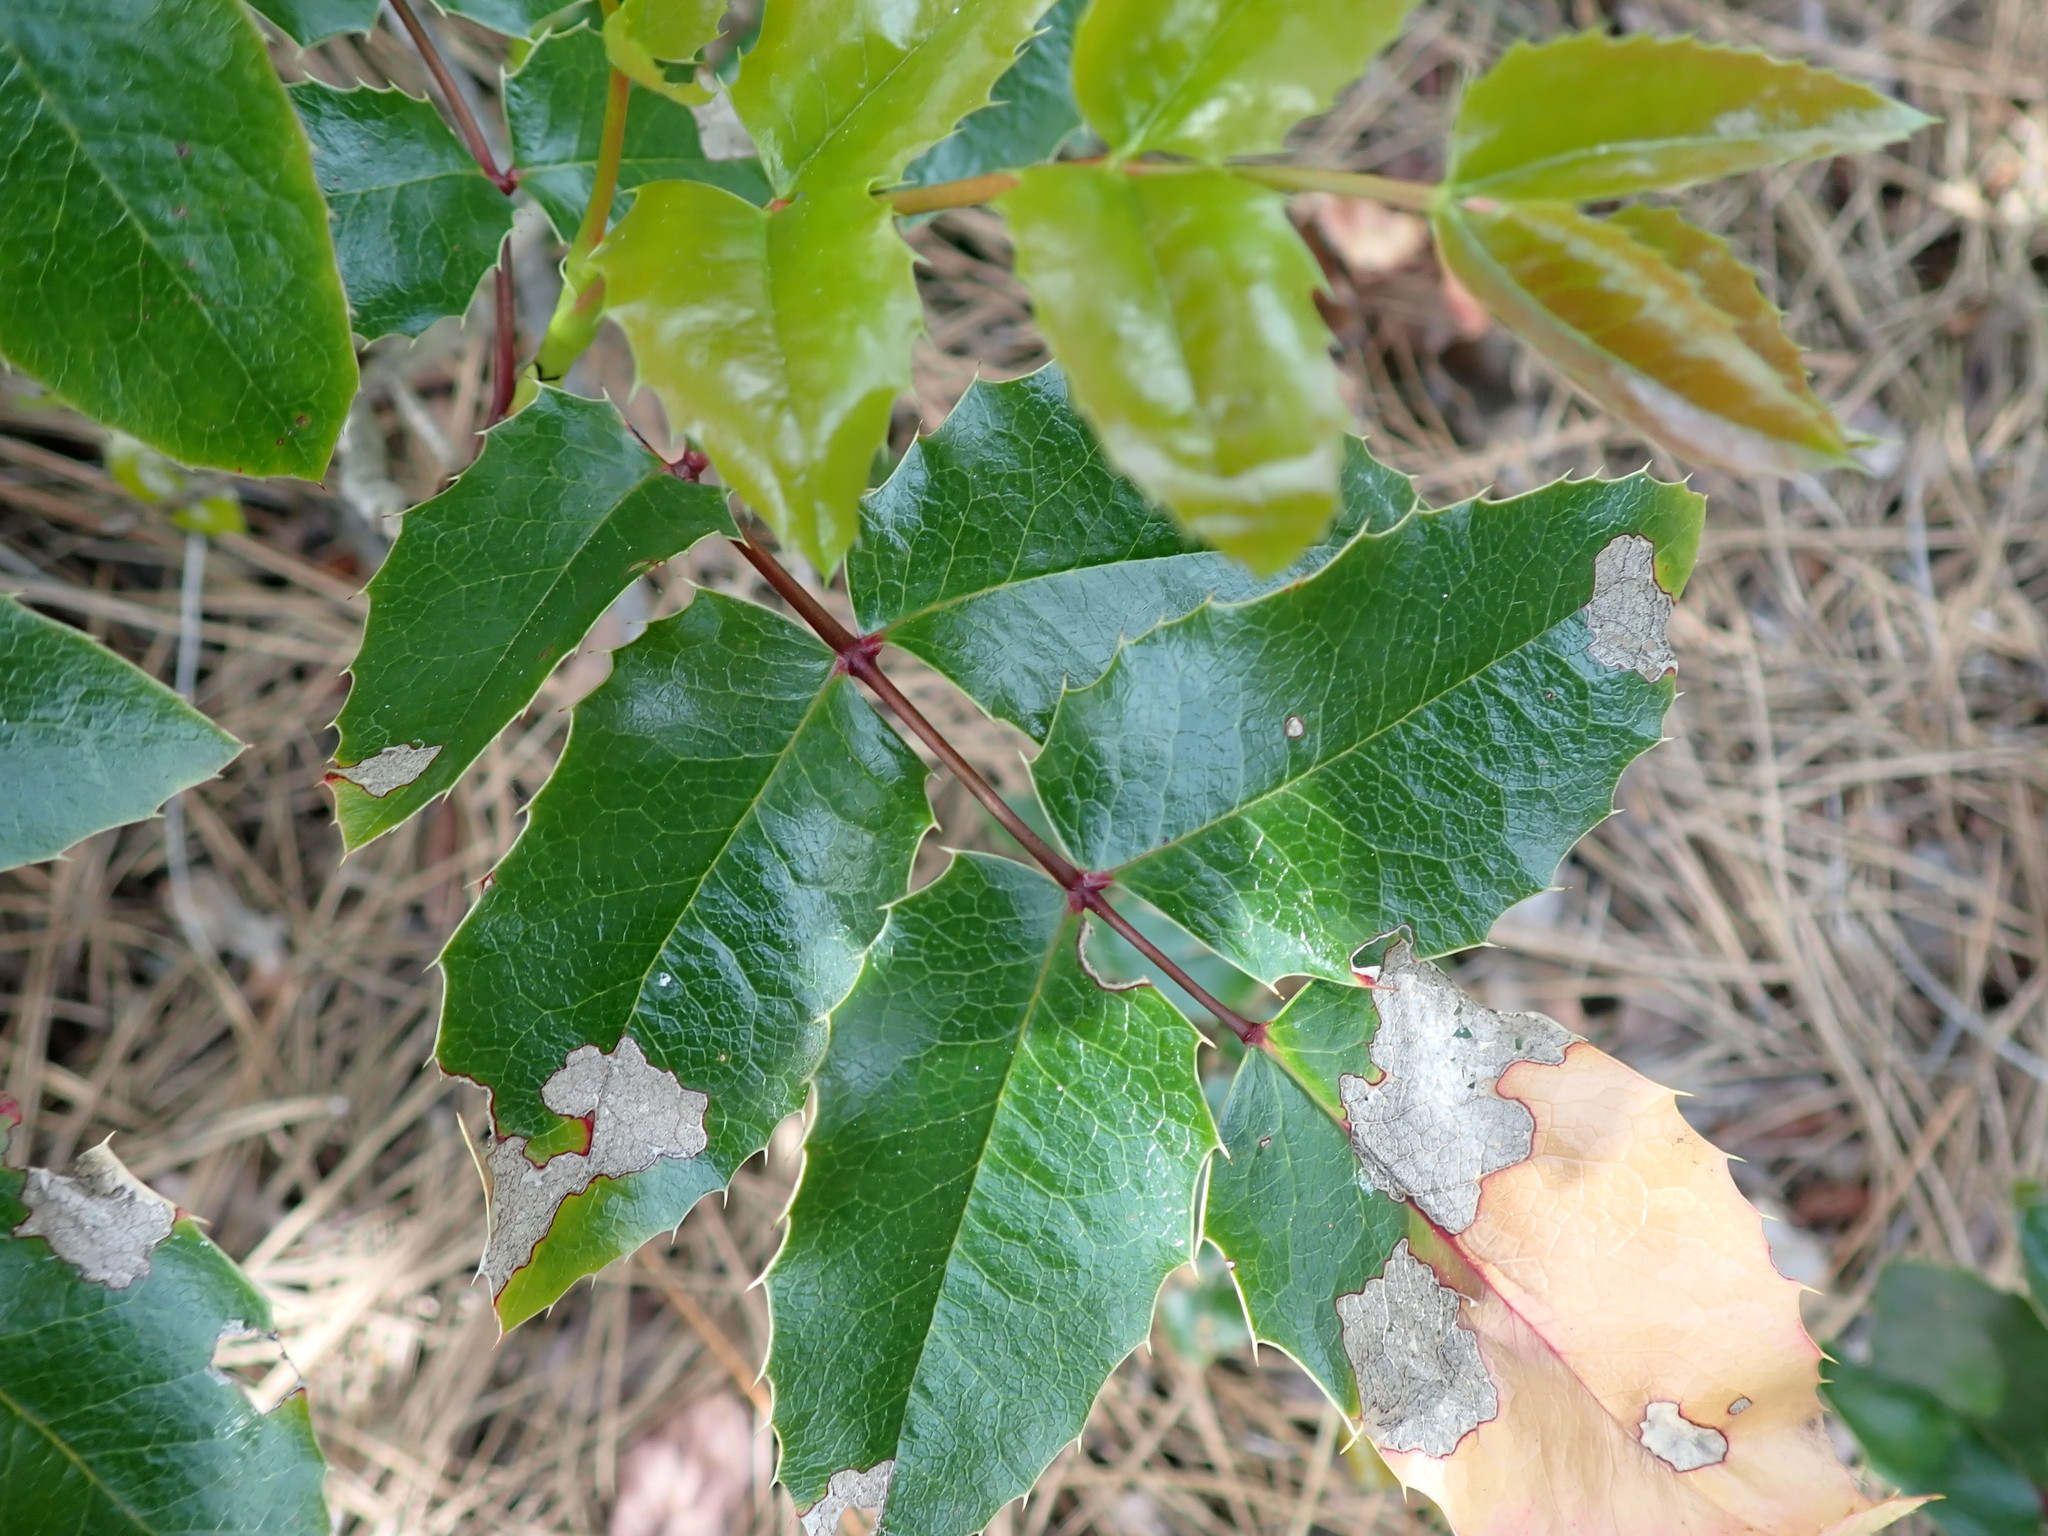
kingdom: Plantae
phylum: Tracheophyta
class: Magnoliopsida
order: Ranunculales
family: Berberidaceae
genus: Mahonia
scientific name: Mahonia aquifolium
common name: Oregon-grape
